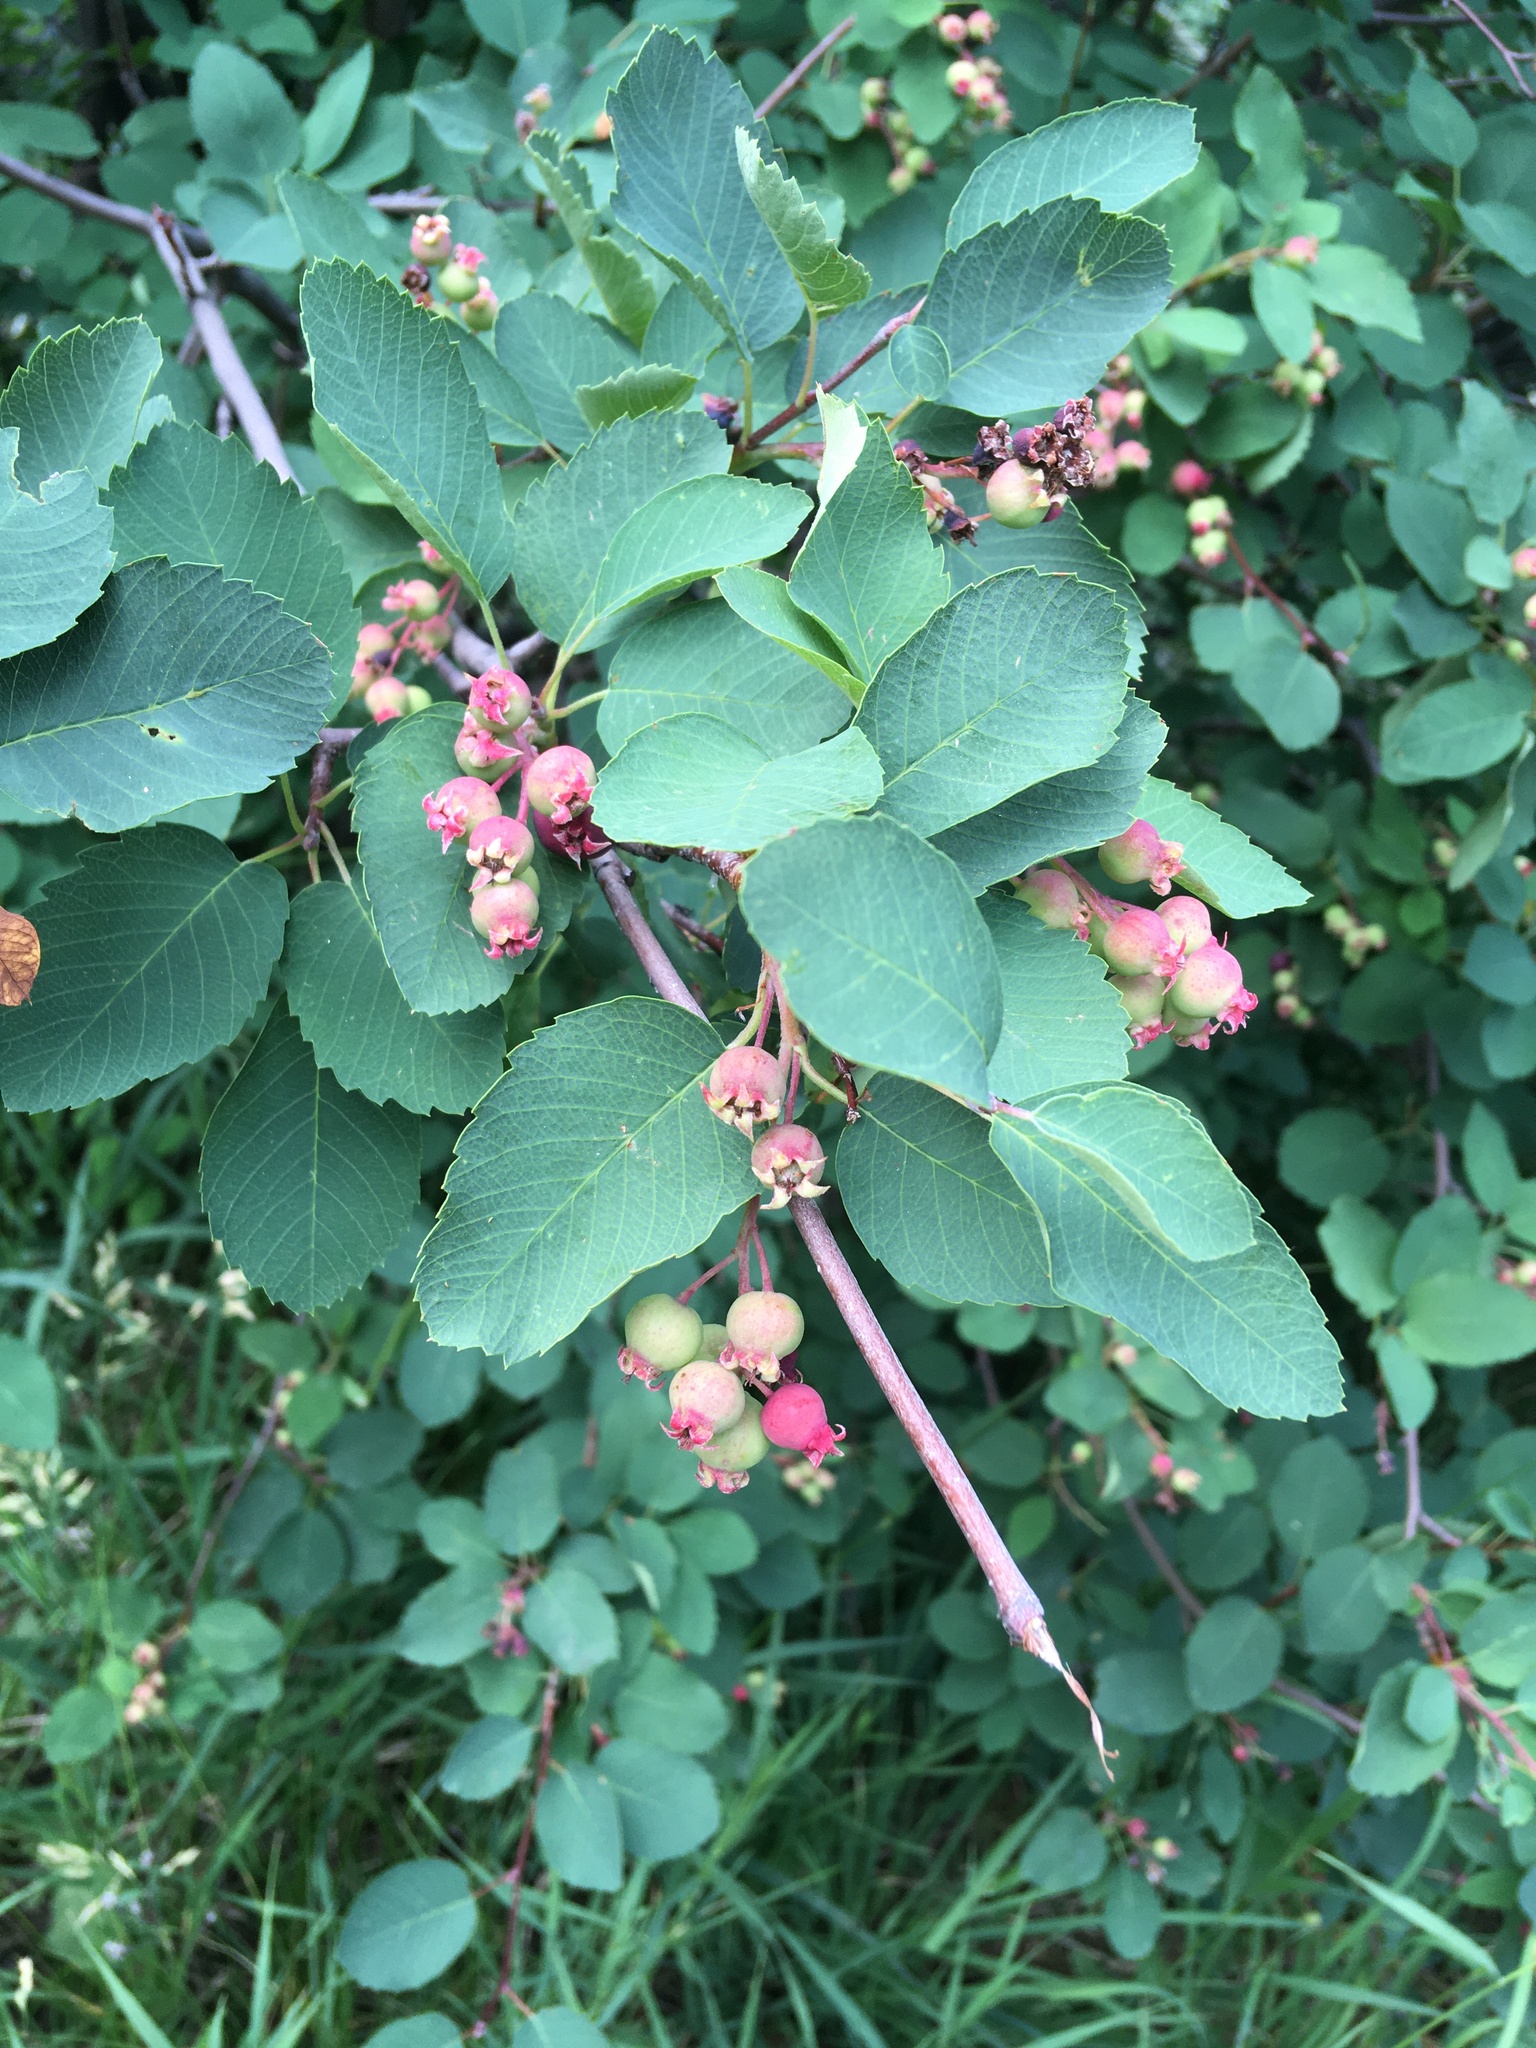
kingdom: Plantae
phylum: Tracheophyta
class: Magnoliopsida
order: Rosales
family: Rosaceae
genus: Amelanchier
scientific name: Amelanchier alnifolia
